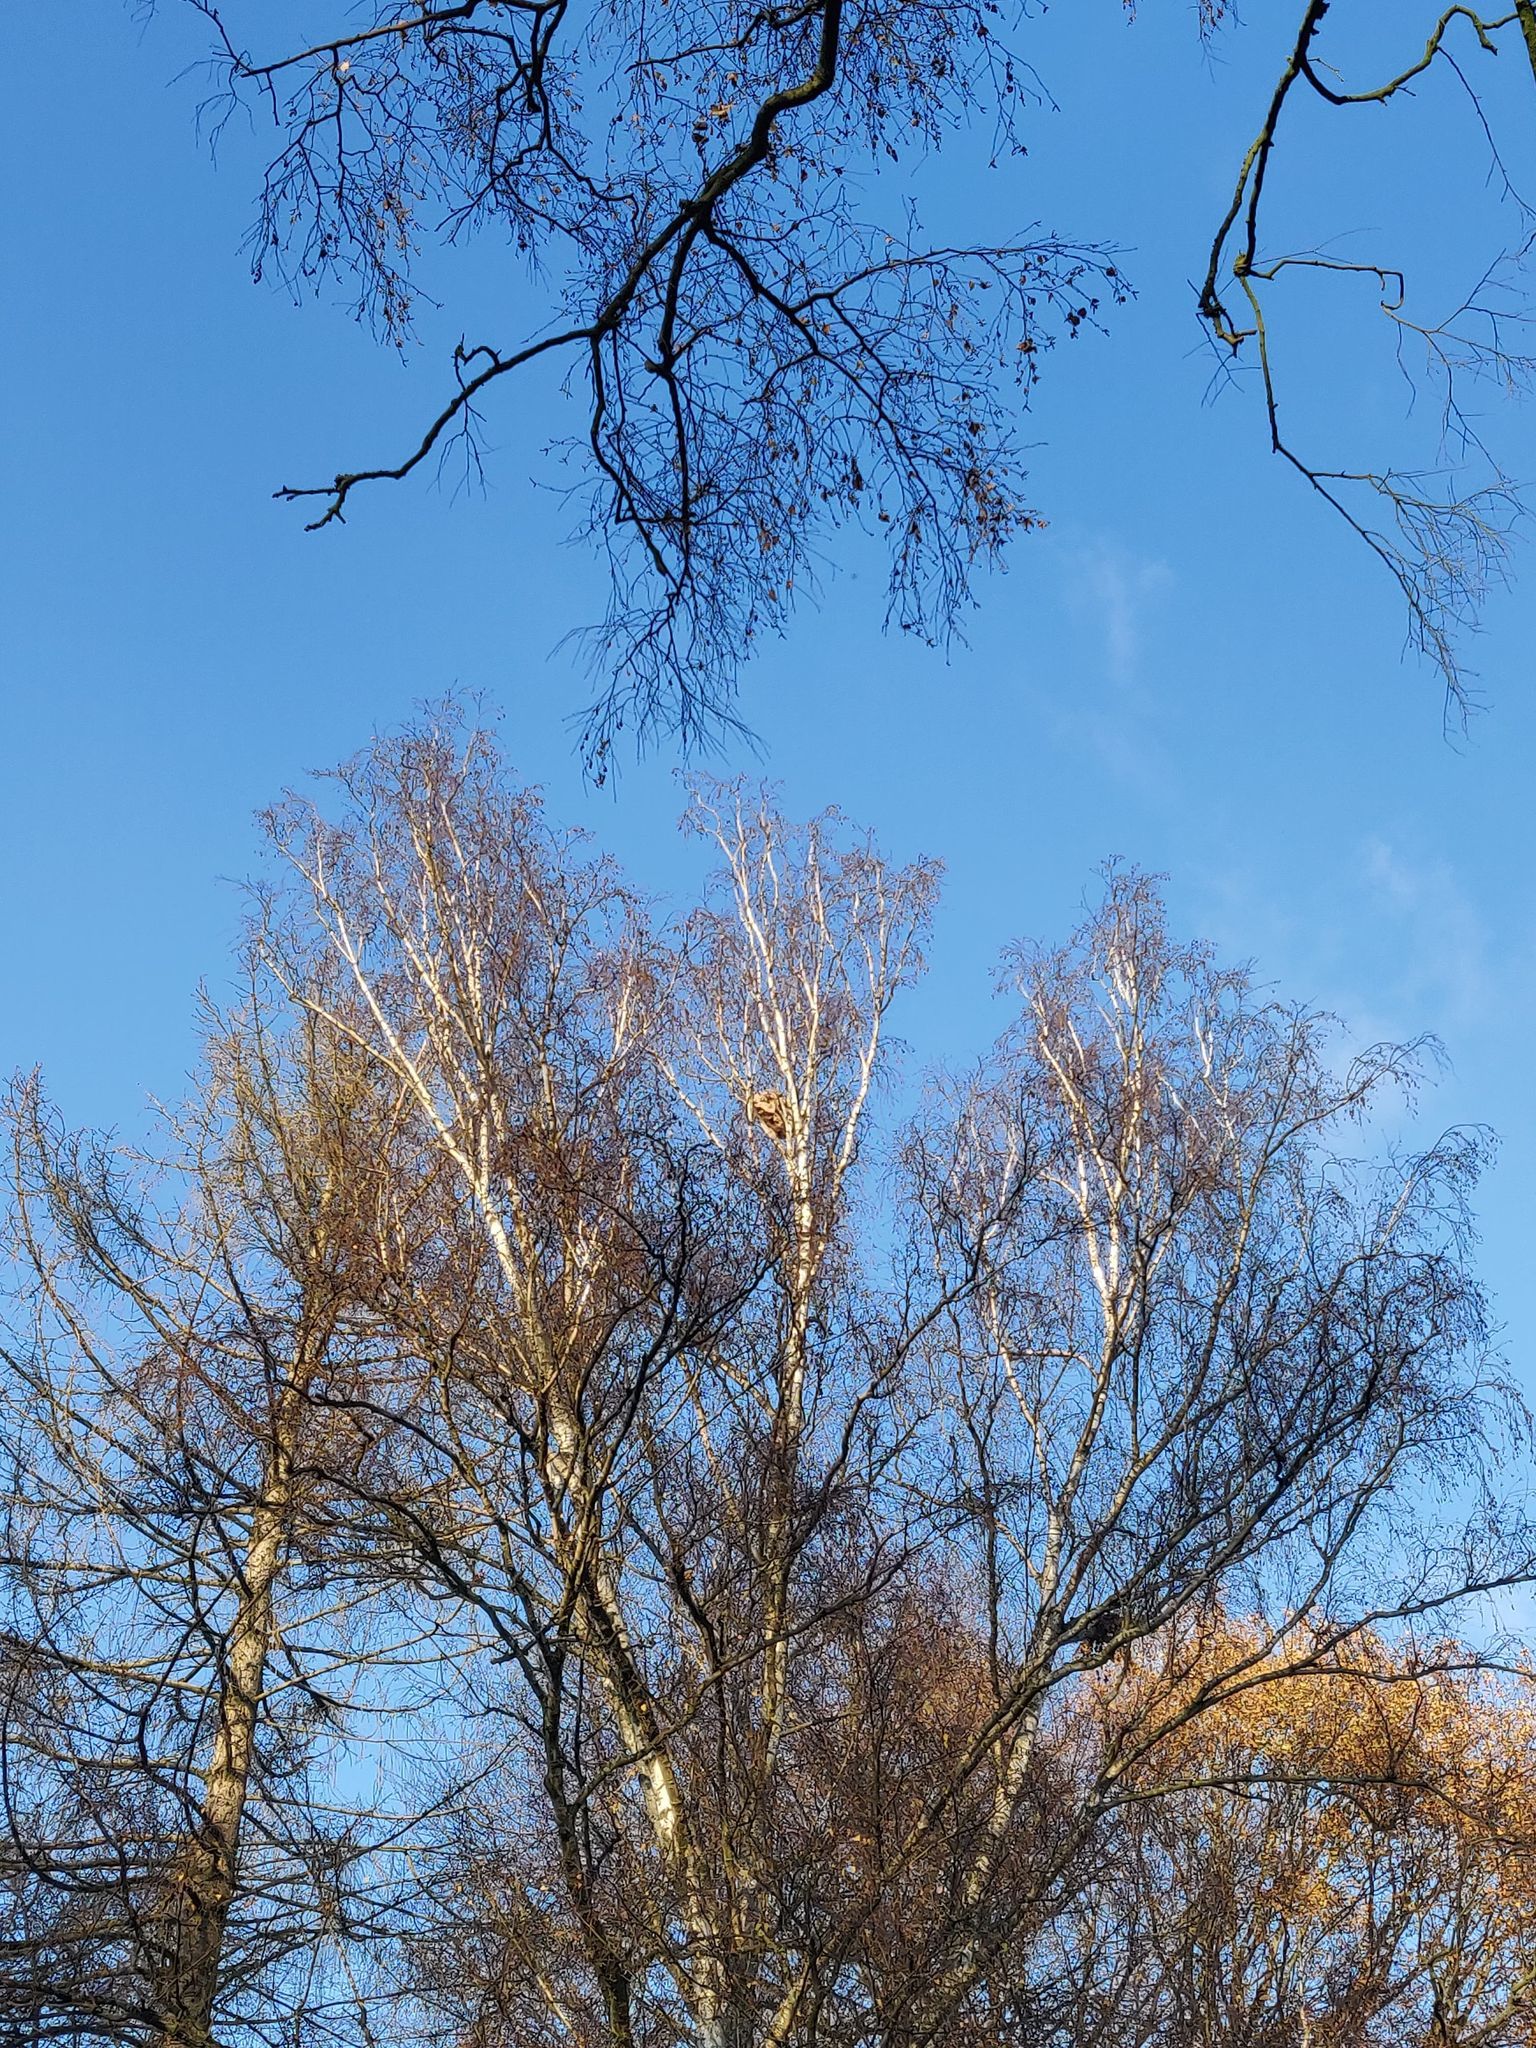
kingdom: Animalia
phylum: Arthropoda
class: Insecta
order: Hymenoptera
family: Vespidae
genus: Vespa
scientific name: Vespa velutina
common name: Asian hornet
